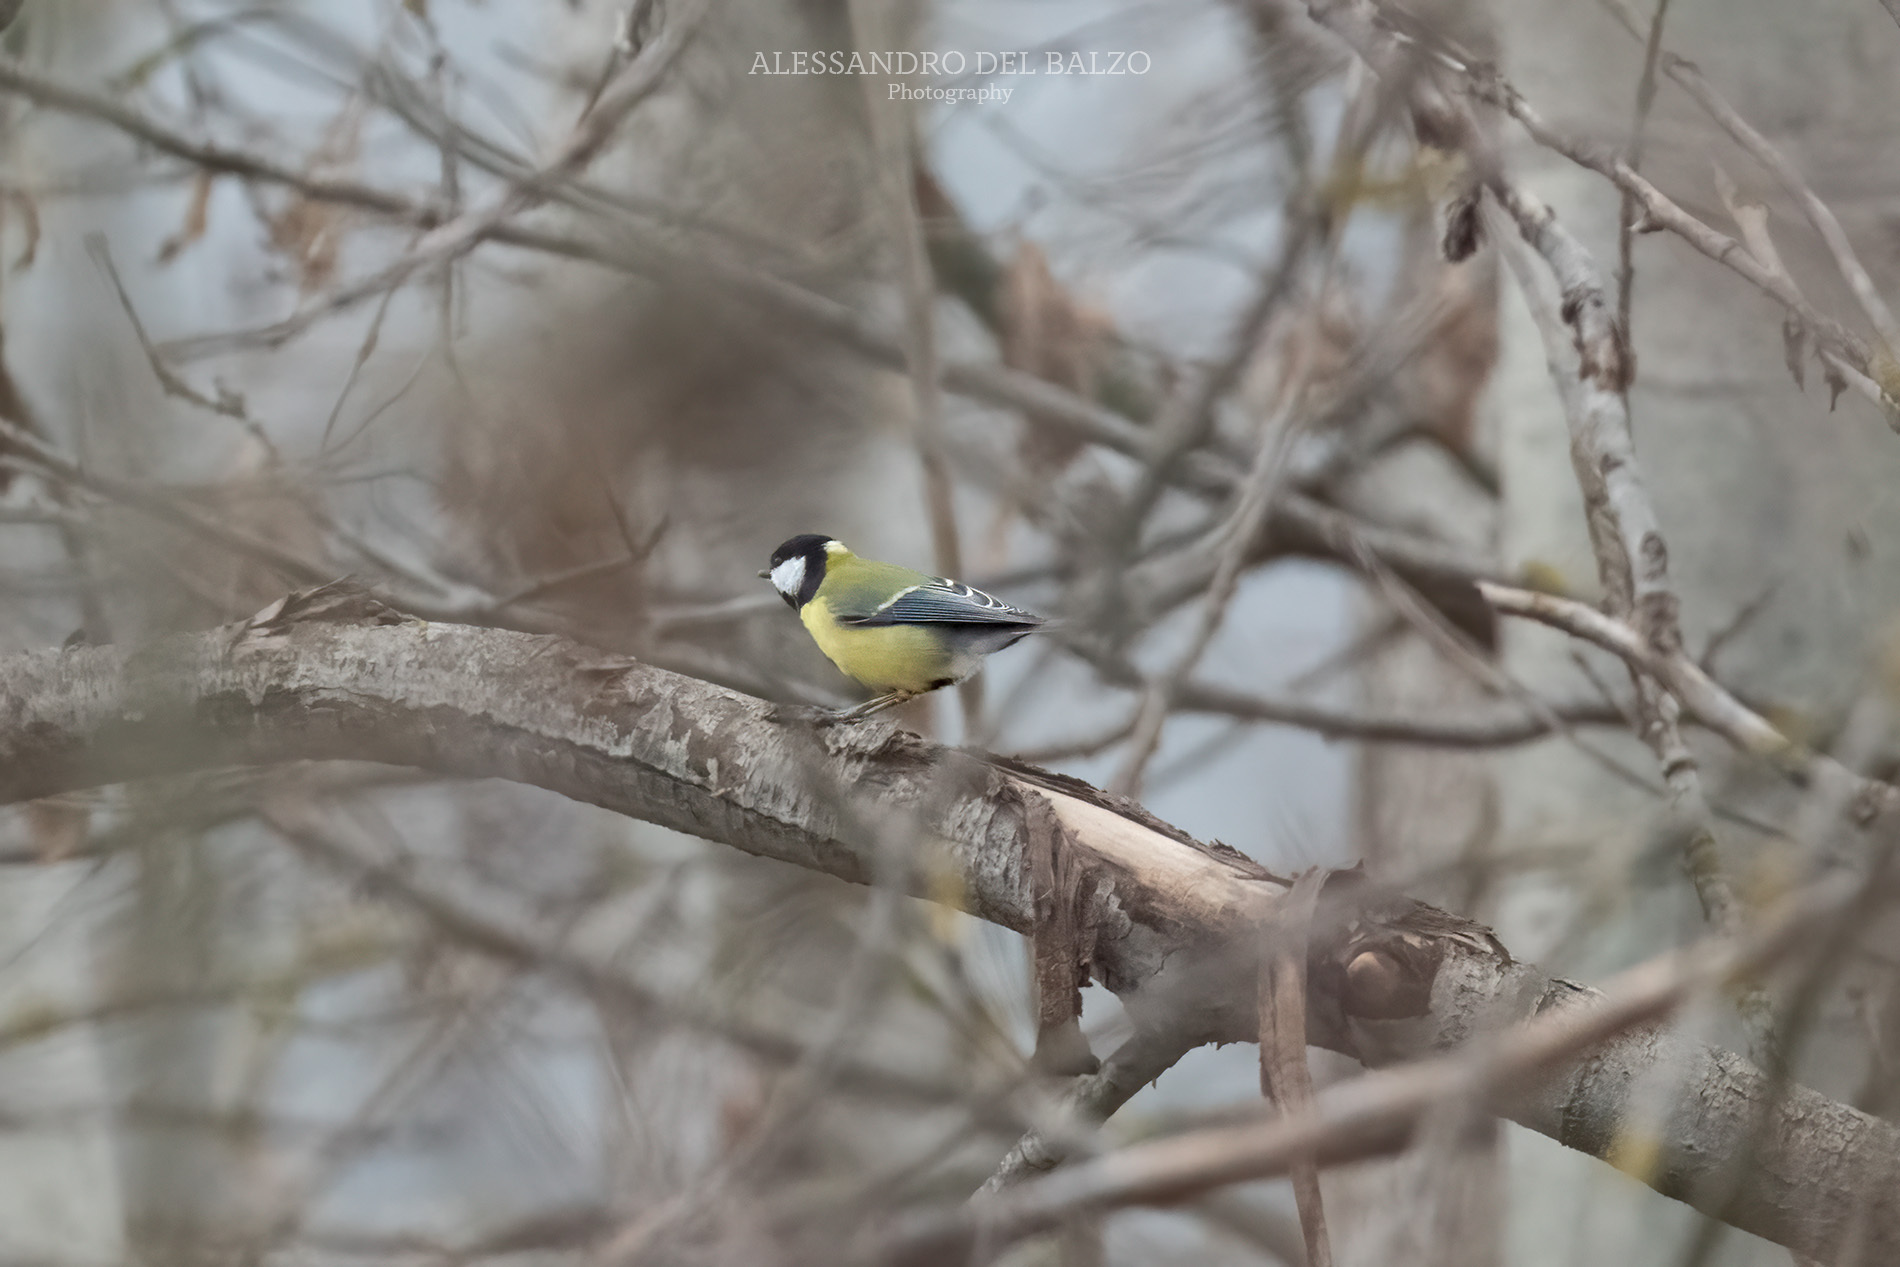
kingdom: Animalia
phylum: Chordata
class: Aves
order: Passeriformes
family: Paridae
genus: Parus
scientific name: Parus major
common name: Great tit
